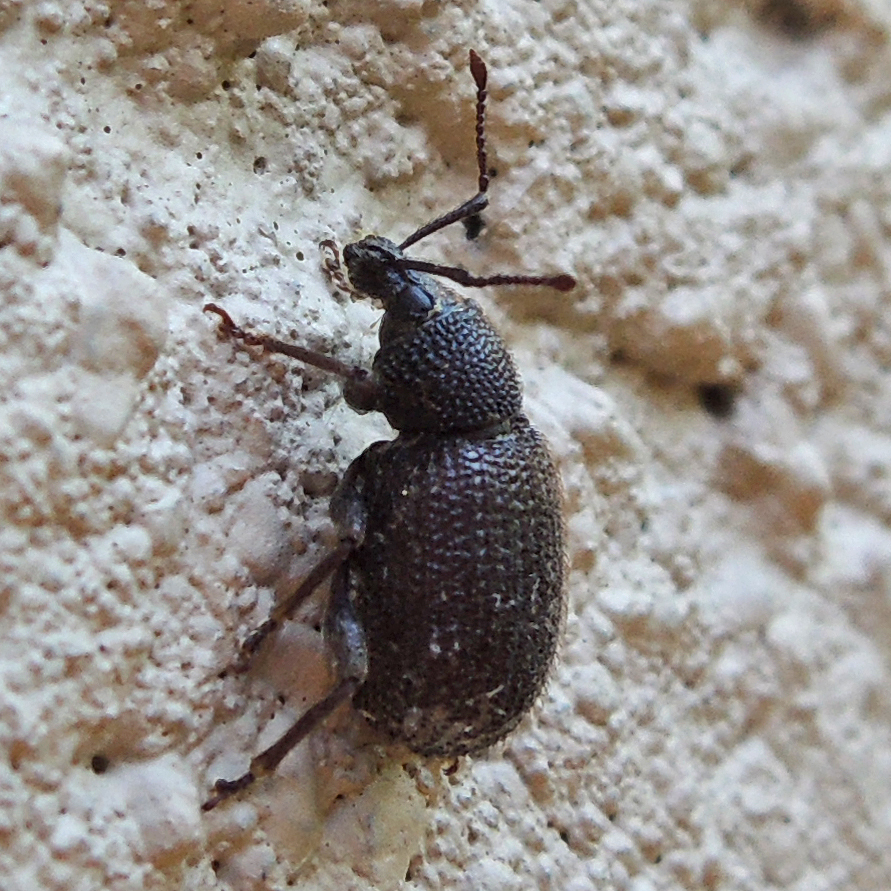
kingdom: Animalia
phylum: Arthropoda
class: Insecta
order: Coleoptera
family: Curculionidae
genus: Otiorhynchus
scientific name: Otiorhynchus rugosostriatus
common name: Weevil
